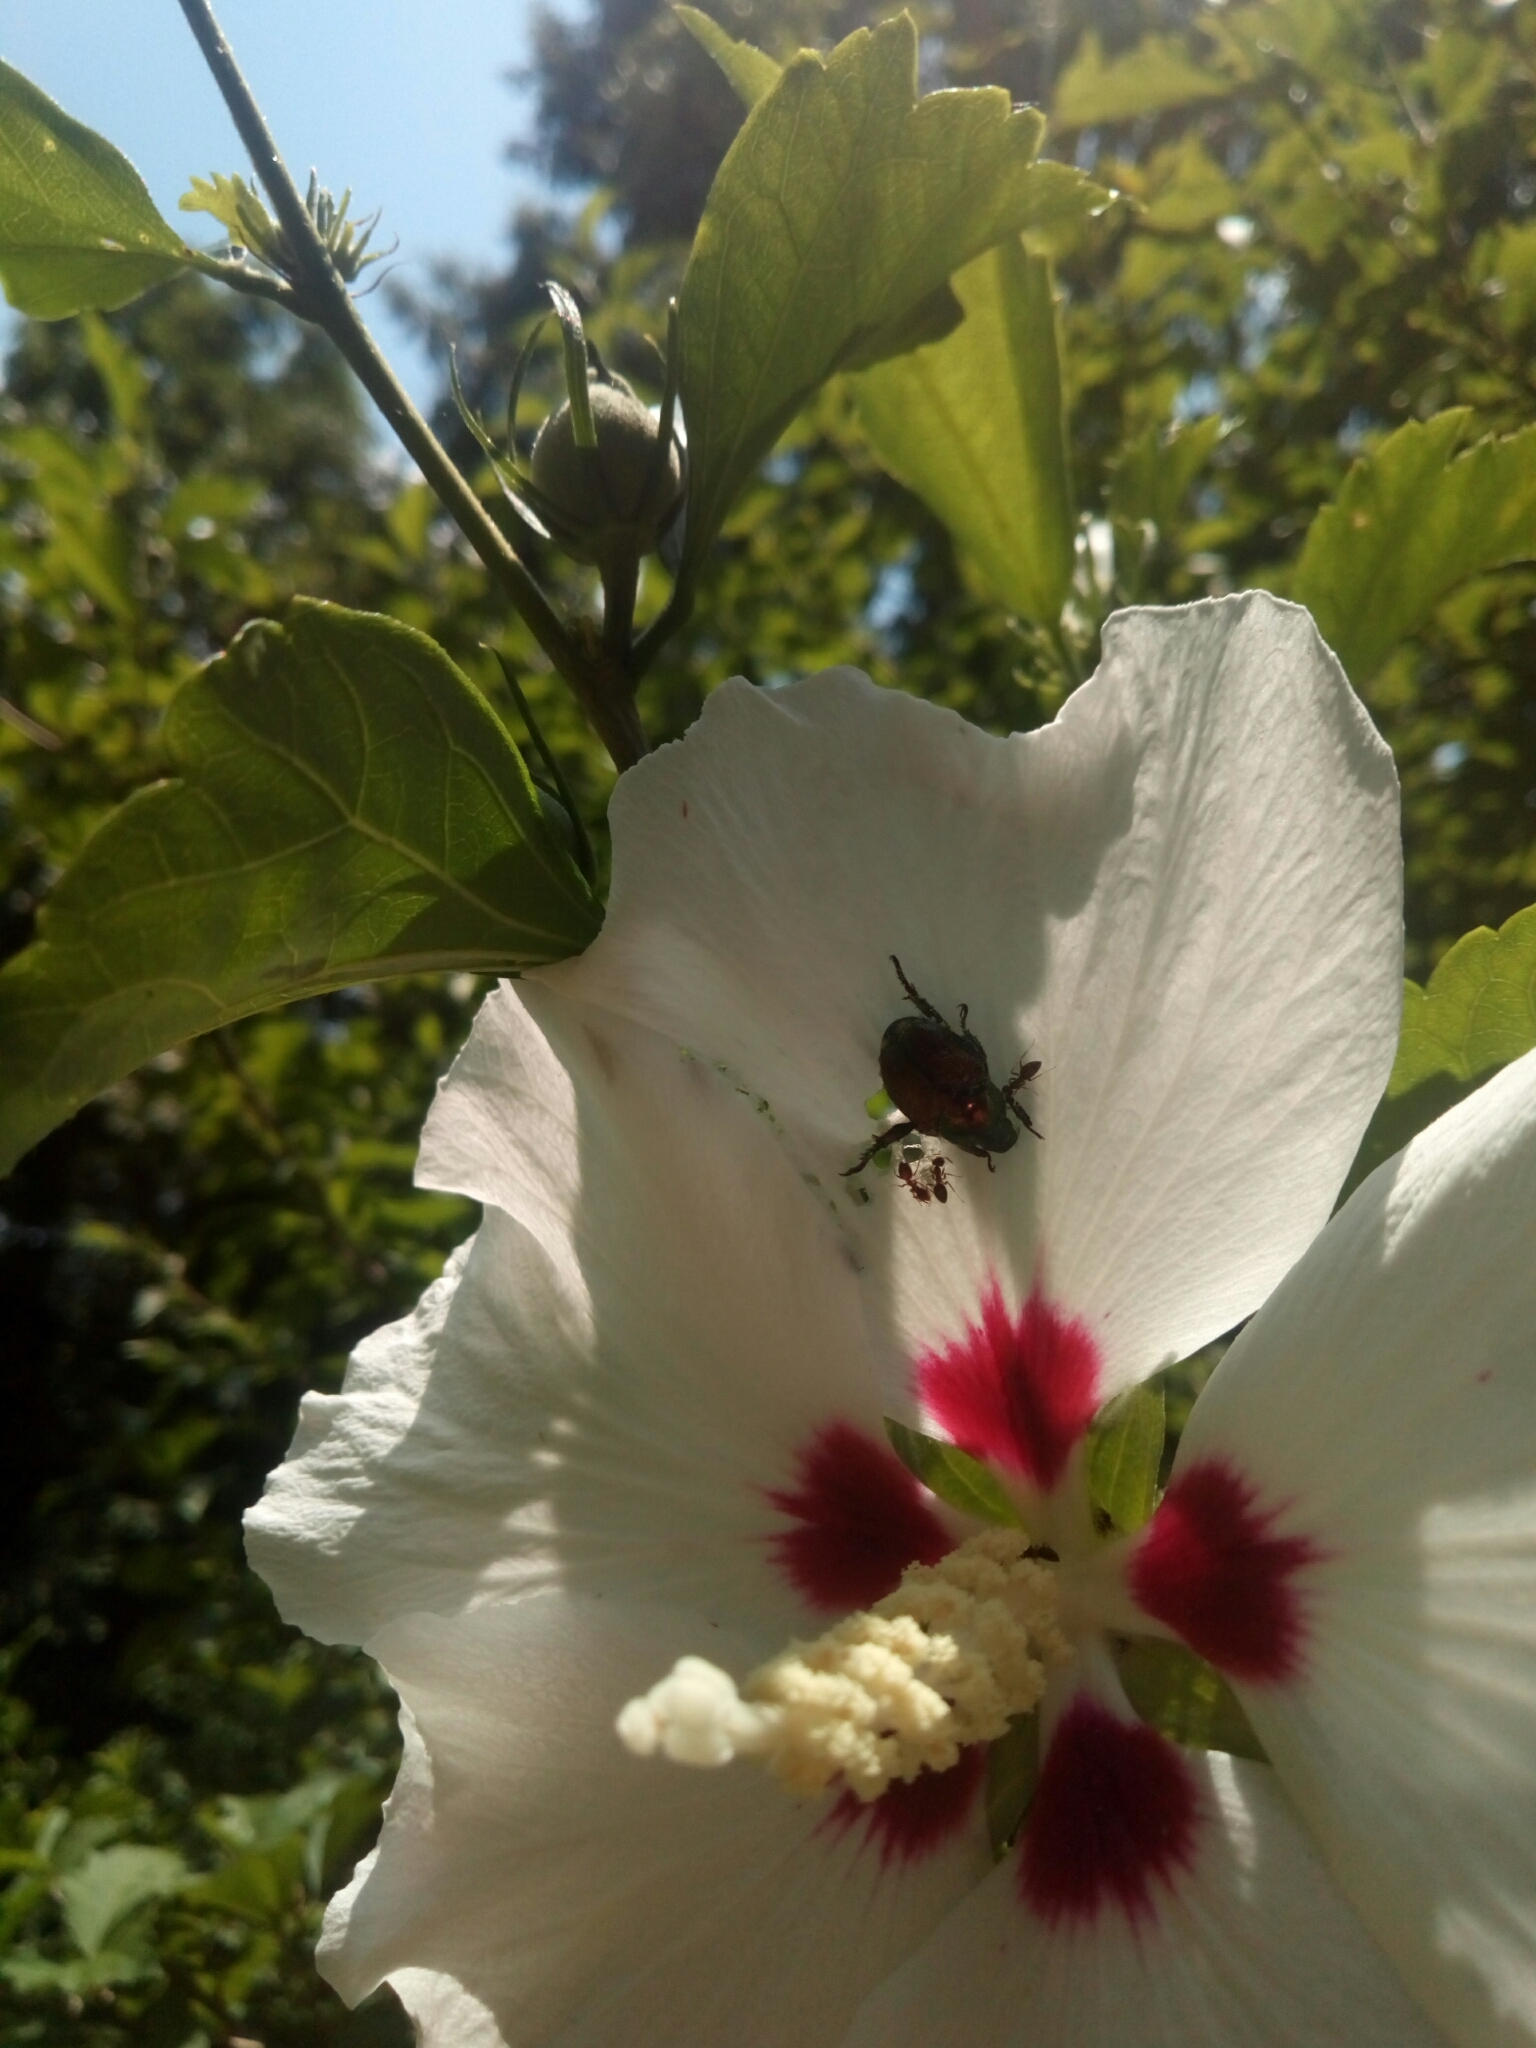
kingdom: Animalia
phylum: Arthropoda
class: Insecta
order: Coleoptera
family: Scarabaeidae
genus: Popillia
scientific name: Popillia japonica
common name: Japanese beetle
